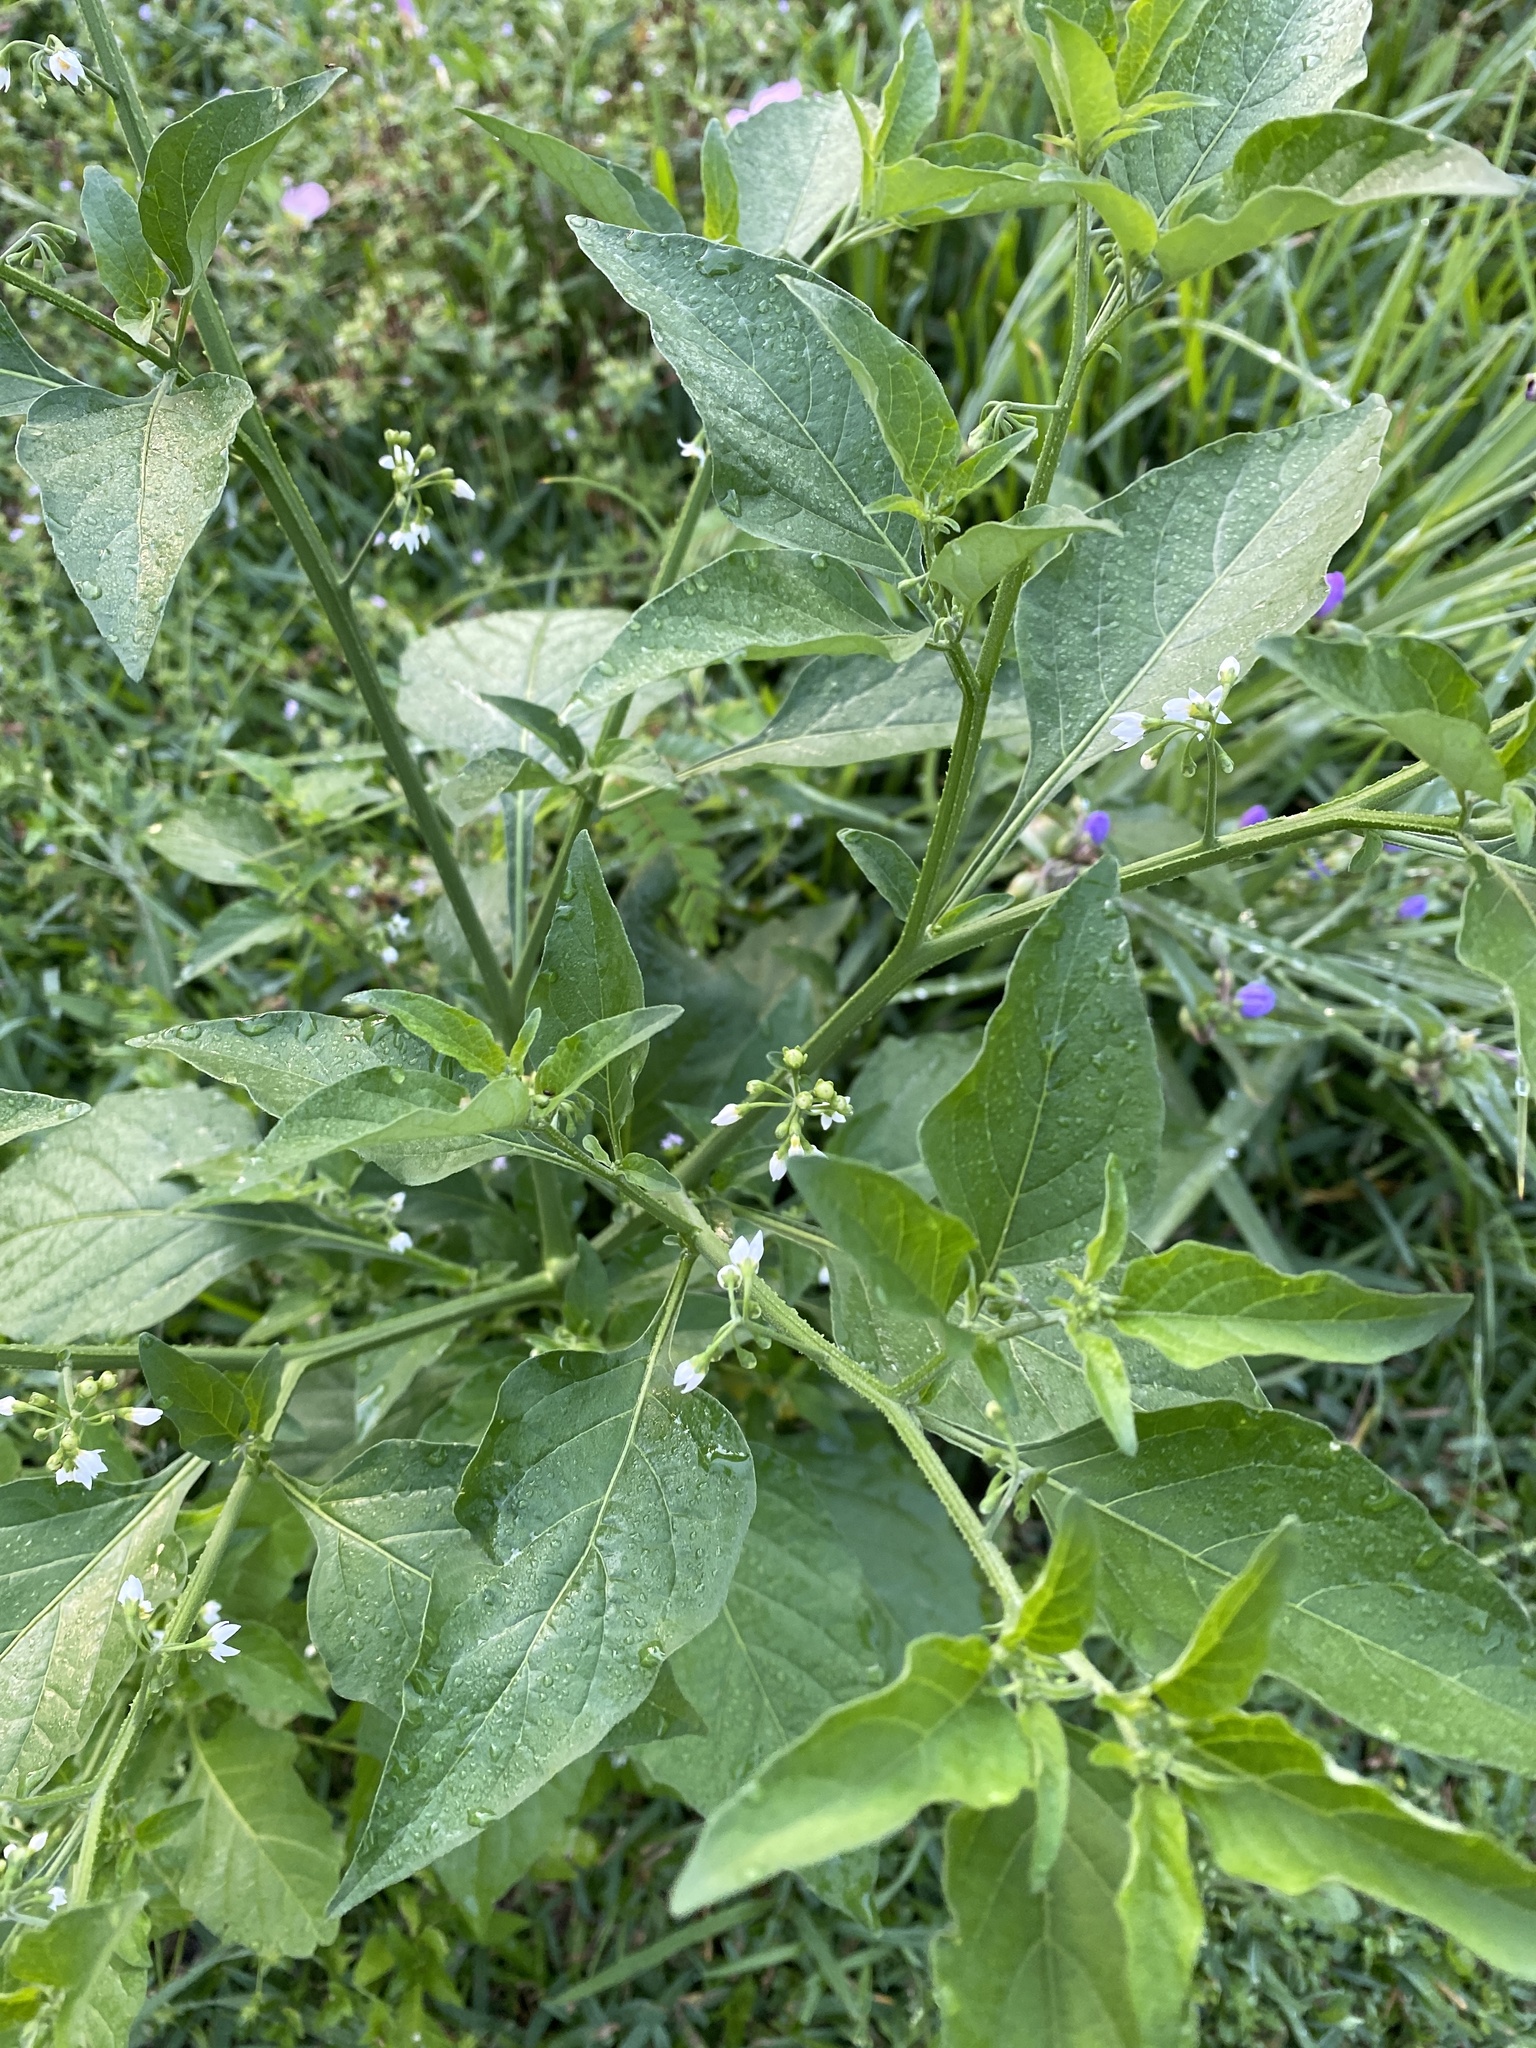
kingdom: Plantae
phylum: Tracheophyta
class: Magnoliopsida
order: Solanales
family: Solanaceae
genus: Solanum
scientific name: Solanum americanum
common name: American black nightshade
